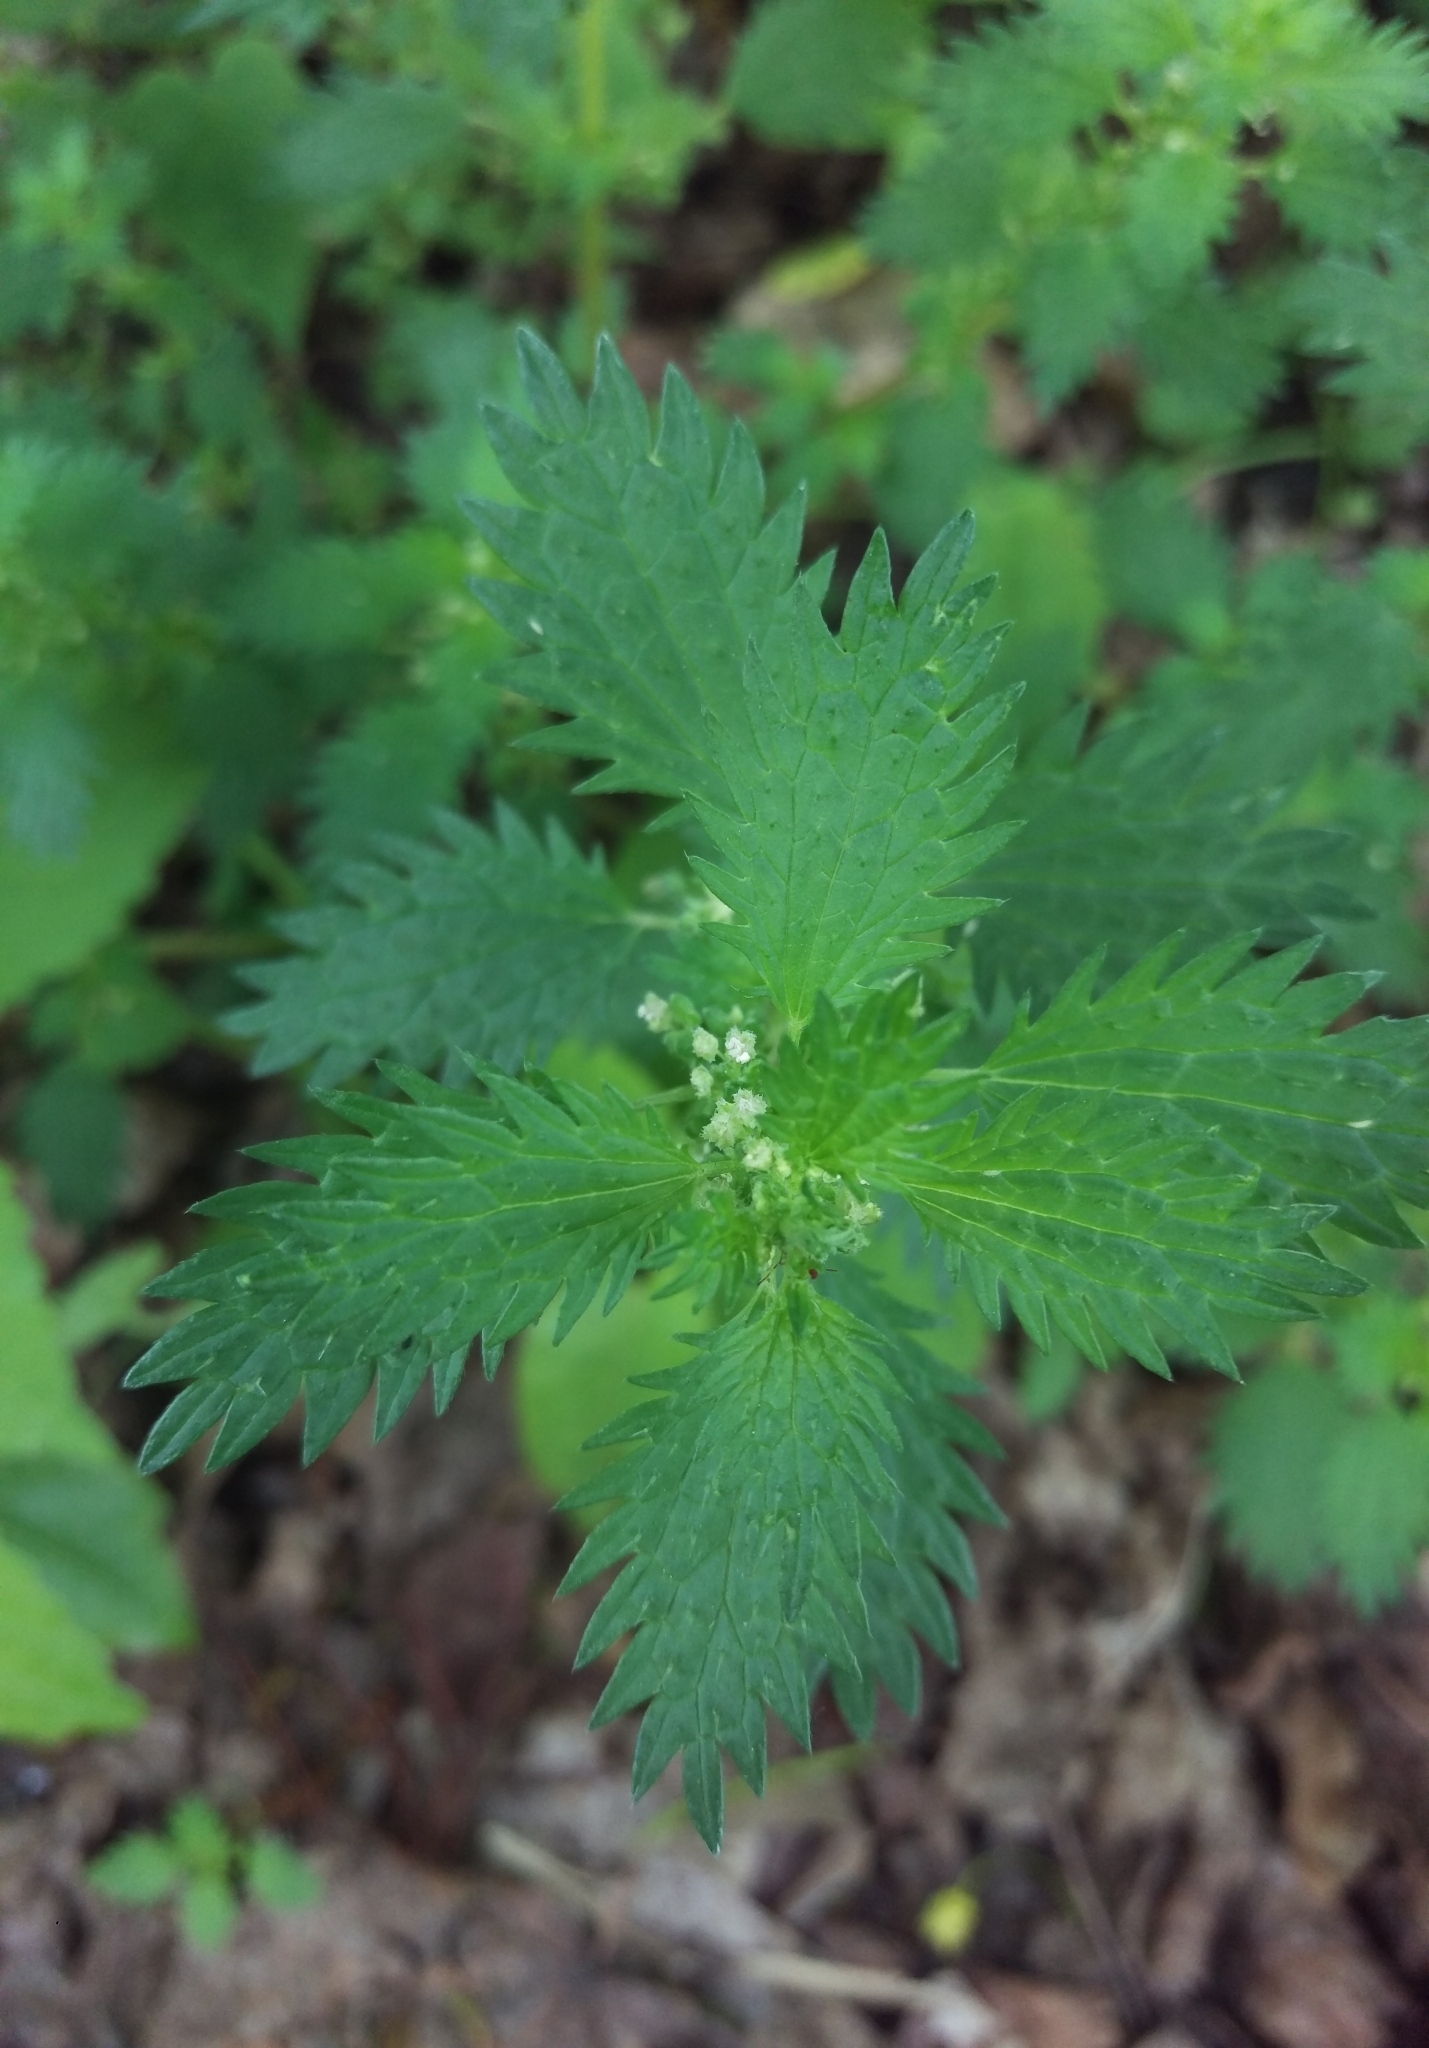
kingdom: Plantae
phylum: Tracheophyta
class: Magnoliopsida
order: Rosales
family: Urticaceae
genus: Urtica
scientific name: Urtica urens
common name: Dwarf nettle
